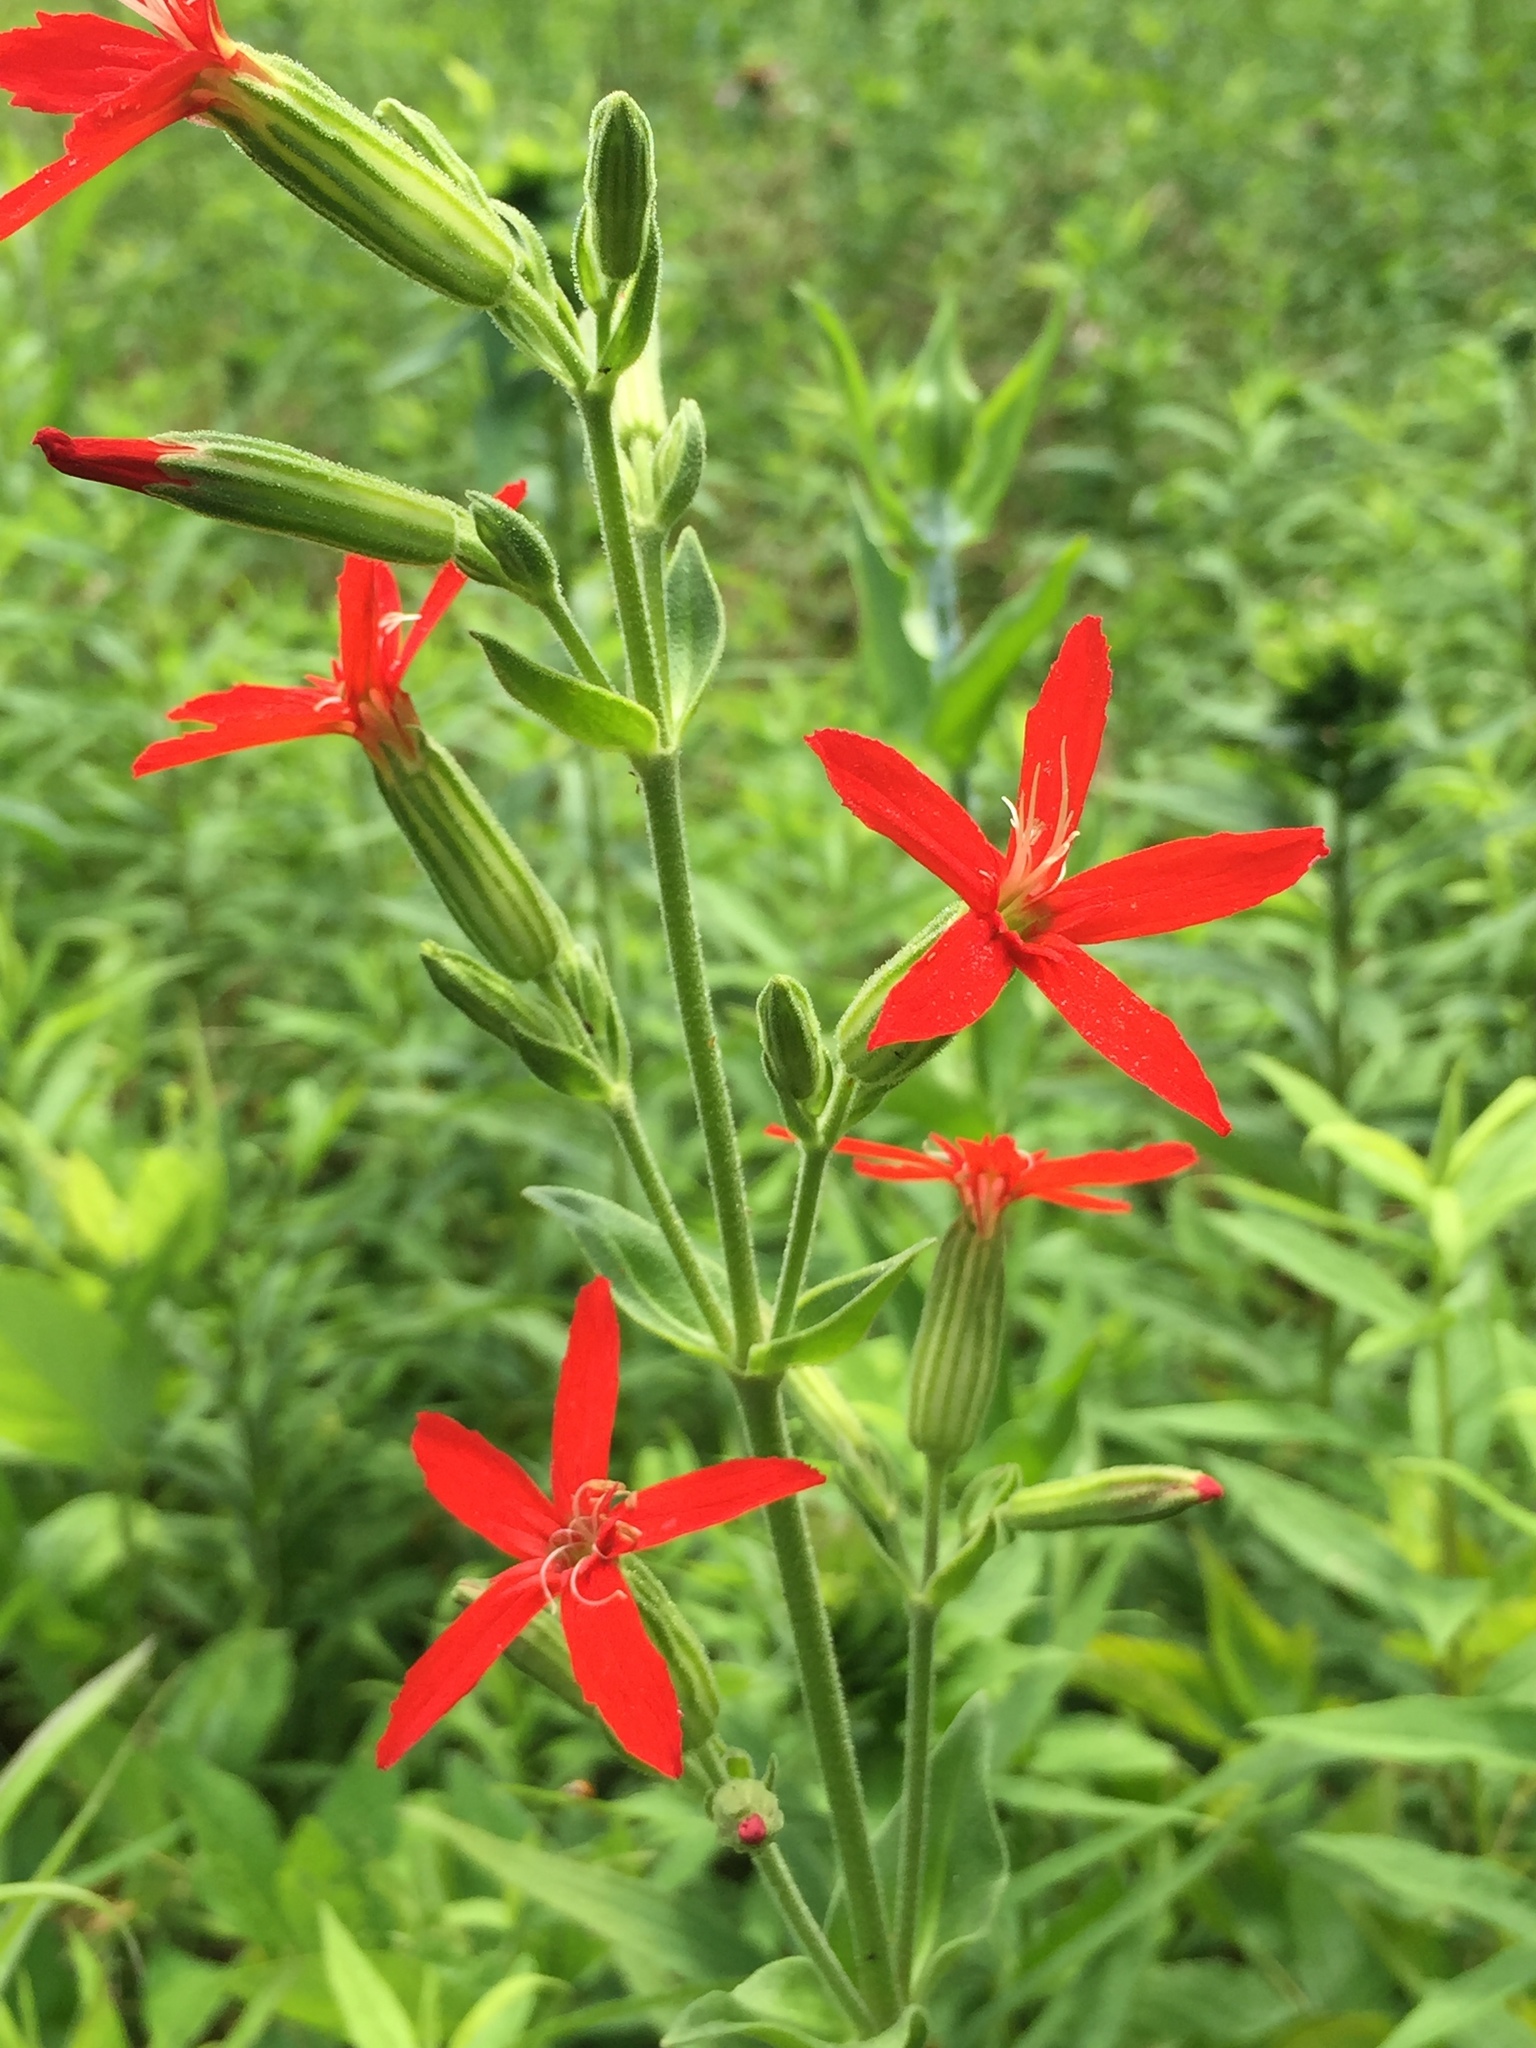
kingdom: Plantae
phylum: Tracheophyta
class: Magnoliopsida
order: Caryophyllales
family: Caryophyllaceae
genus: Silene
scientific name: Silene regia
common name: Royal catchfly
